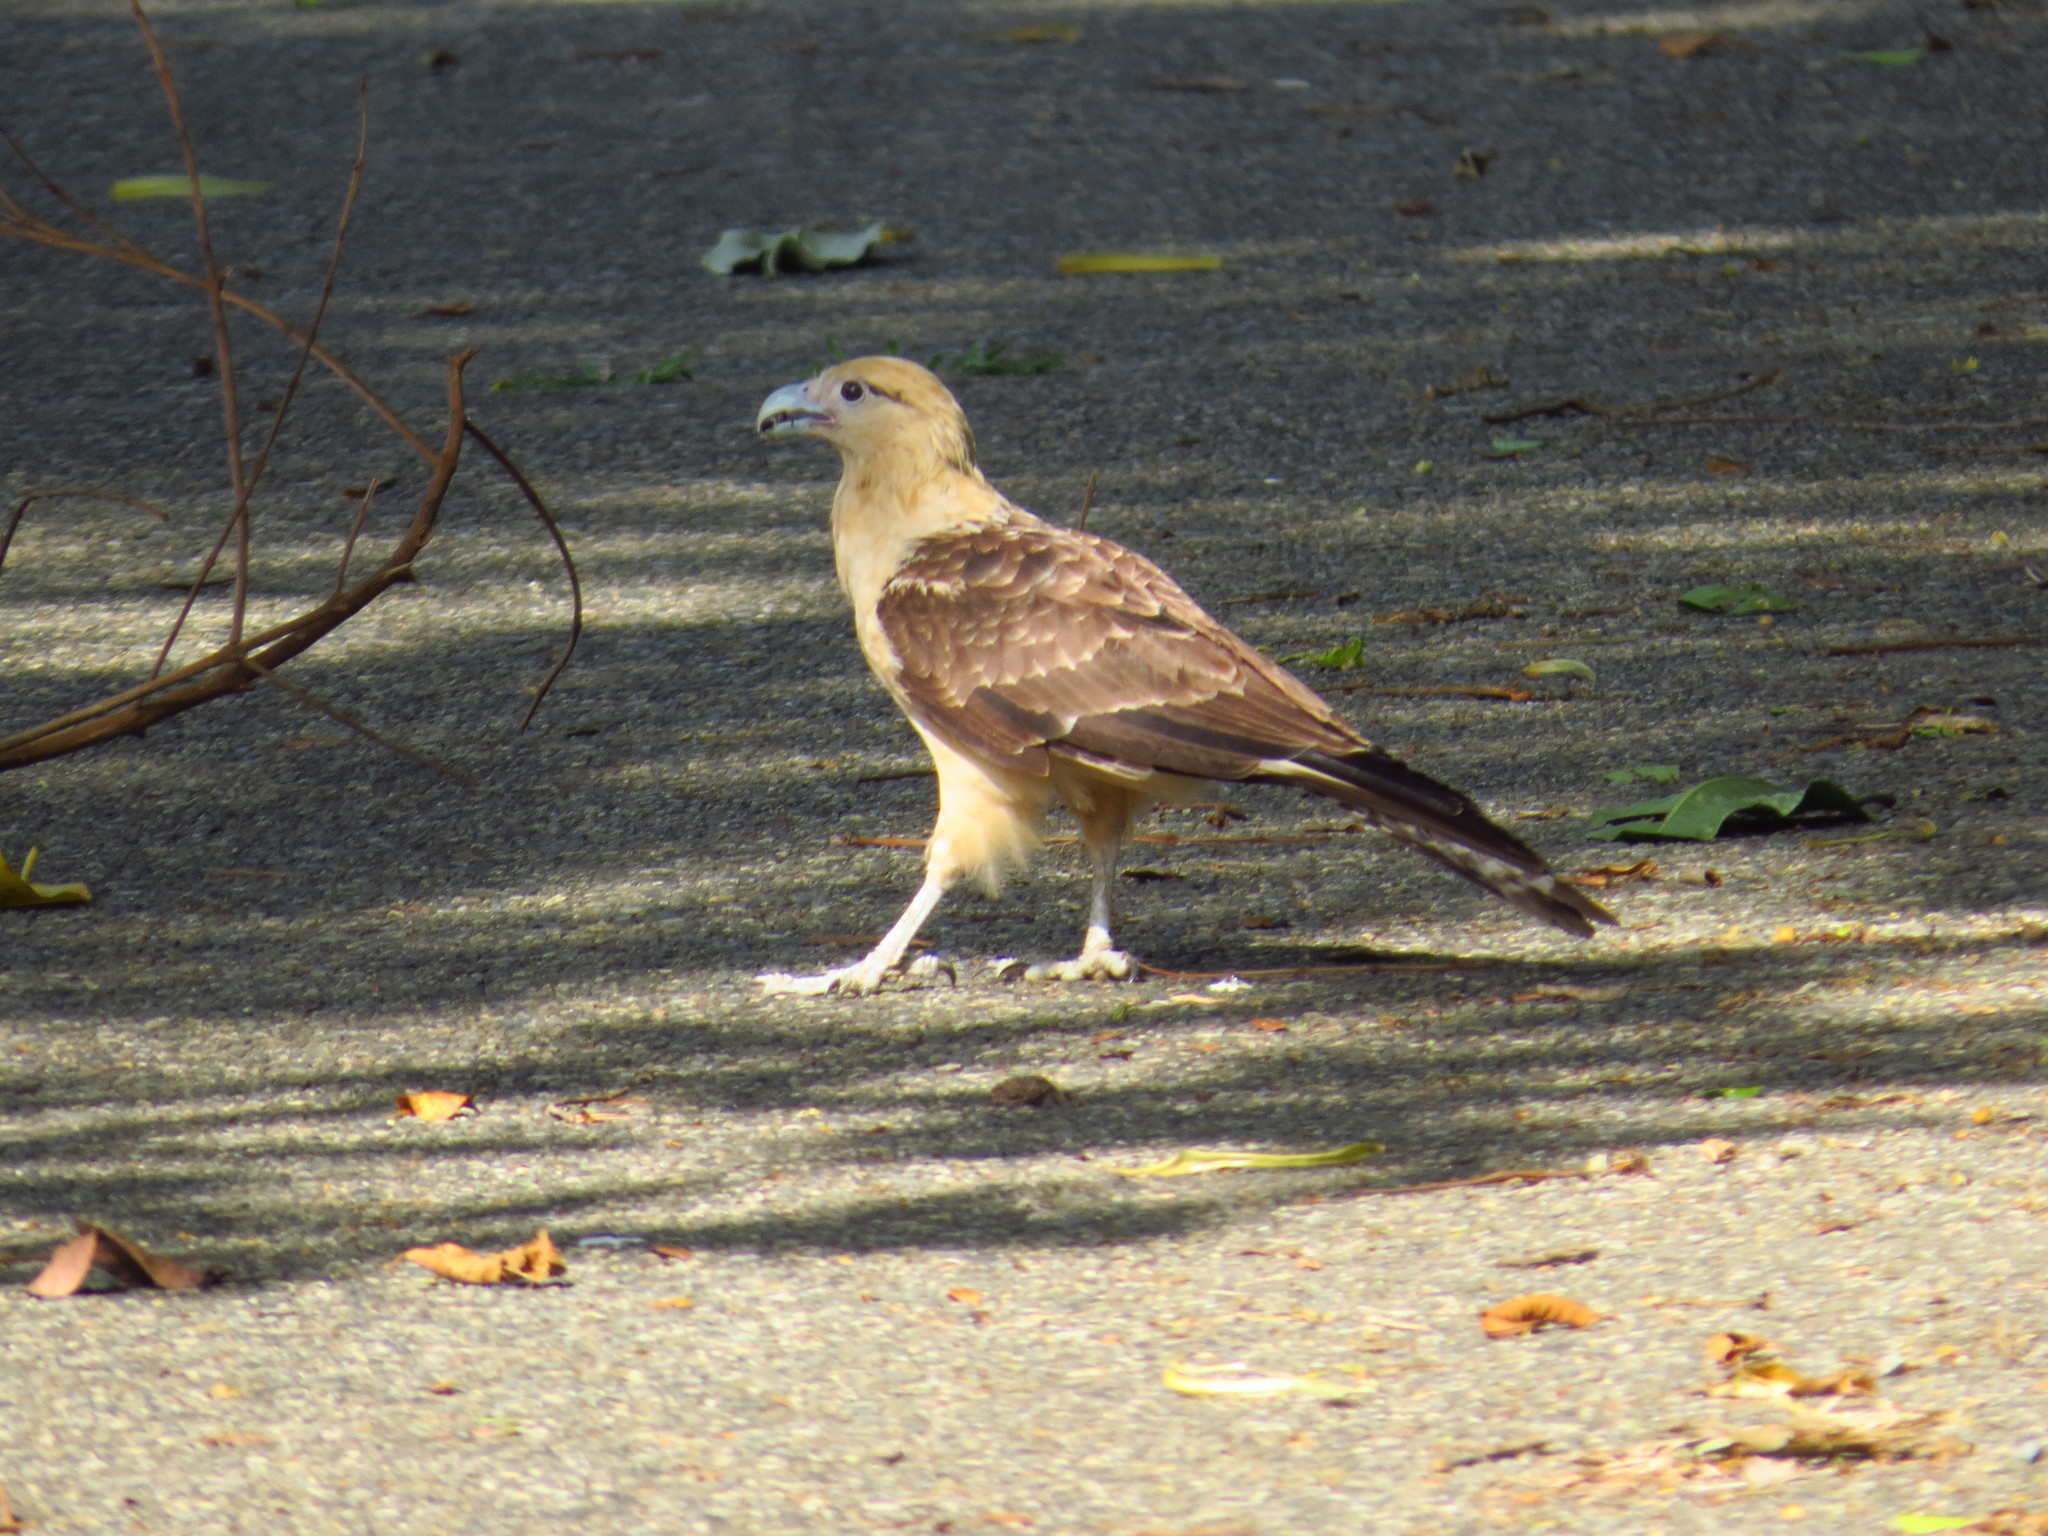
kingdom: Animalia
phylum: Chordata
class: Aves
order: Falconiformes
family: Falconidae
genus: Daptrius
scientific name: Daptrius
